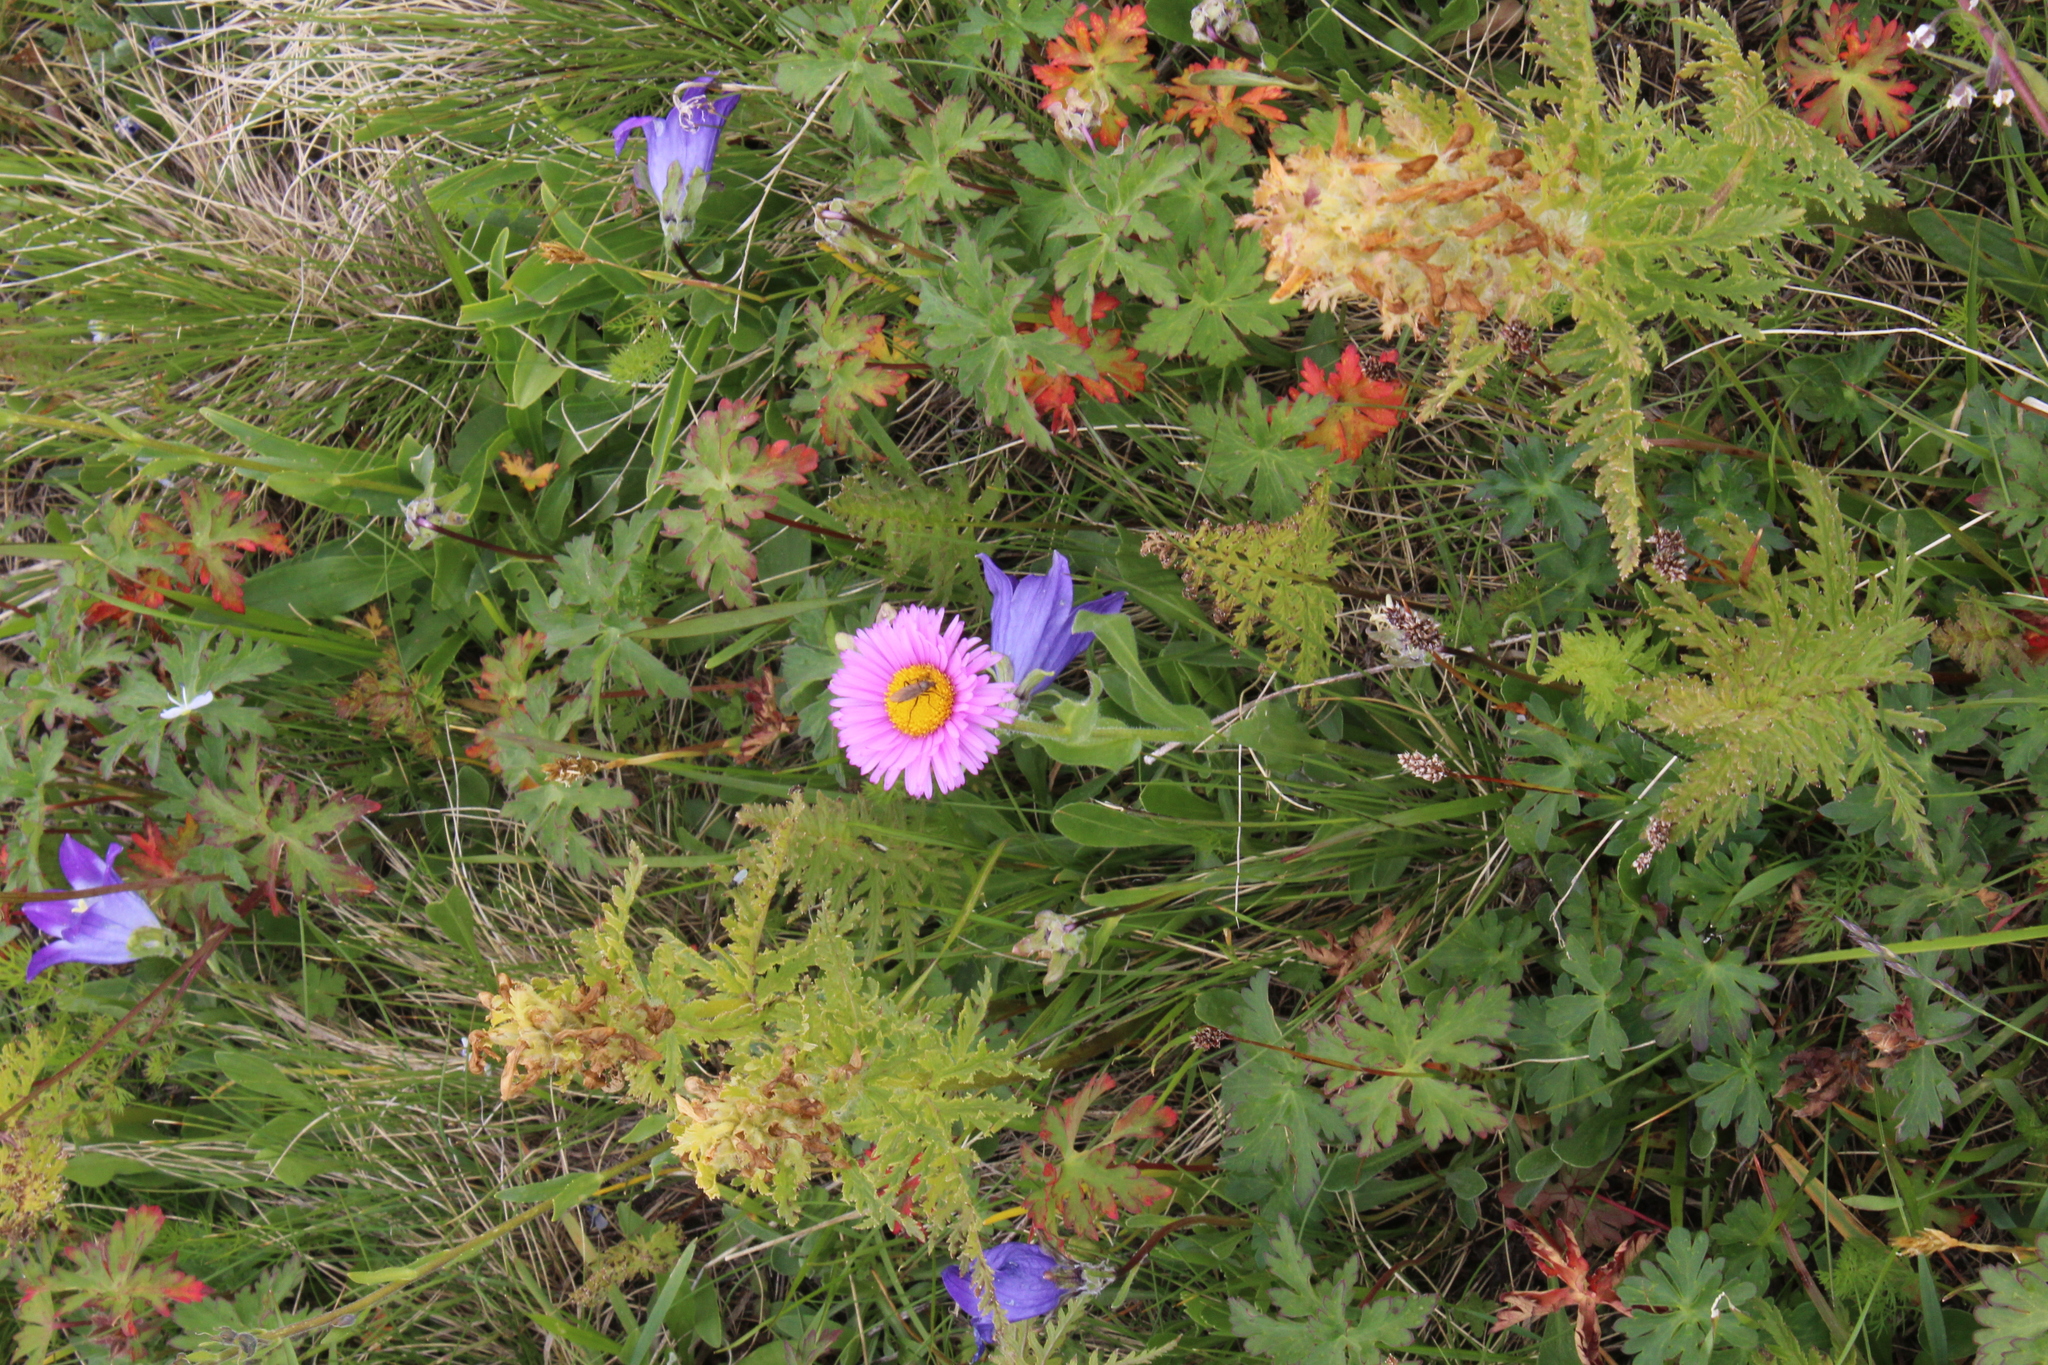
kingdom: Plantae
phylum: Tracheophyta
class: Magnoliopsida
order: Asterales
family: Asteraceae
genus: Erigeron
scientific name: Erigeron caucasicus
